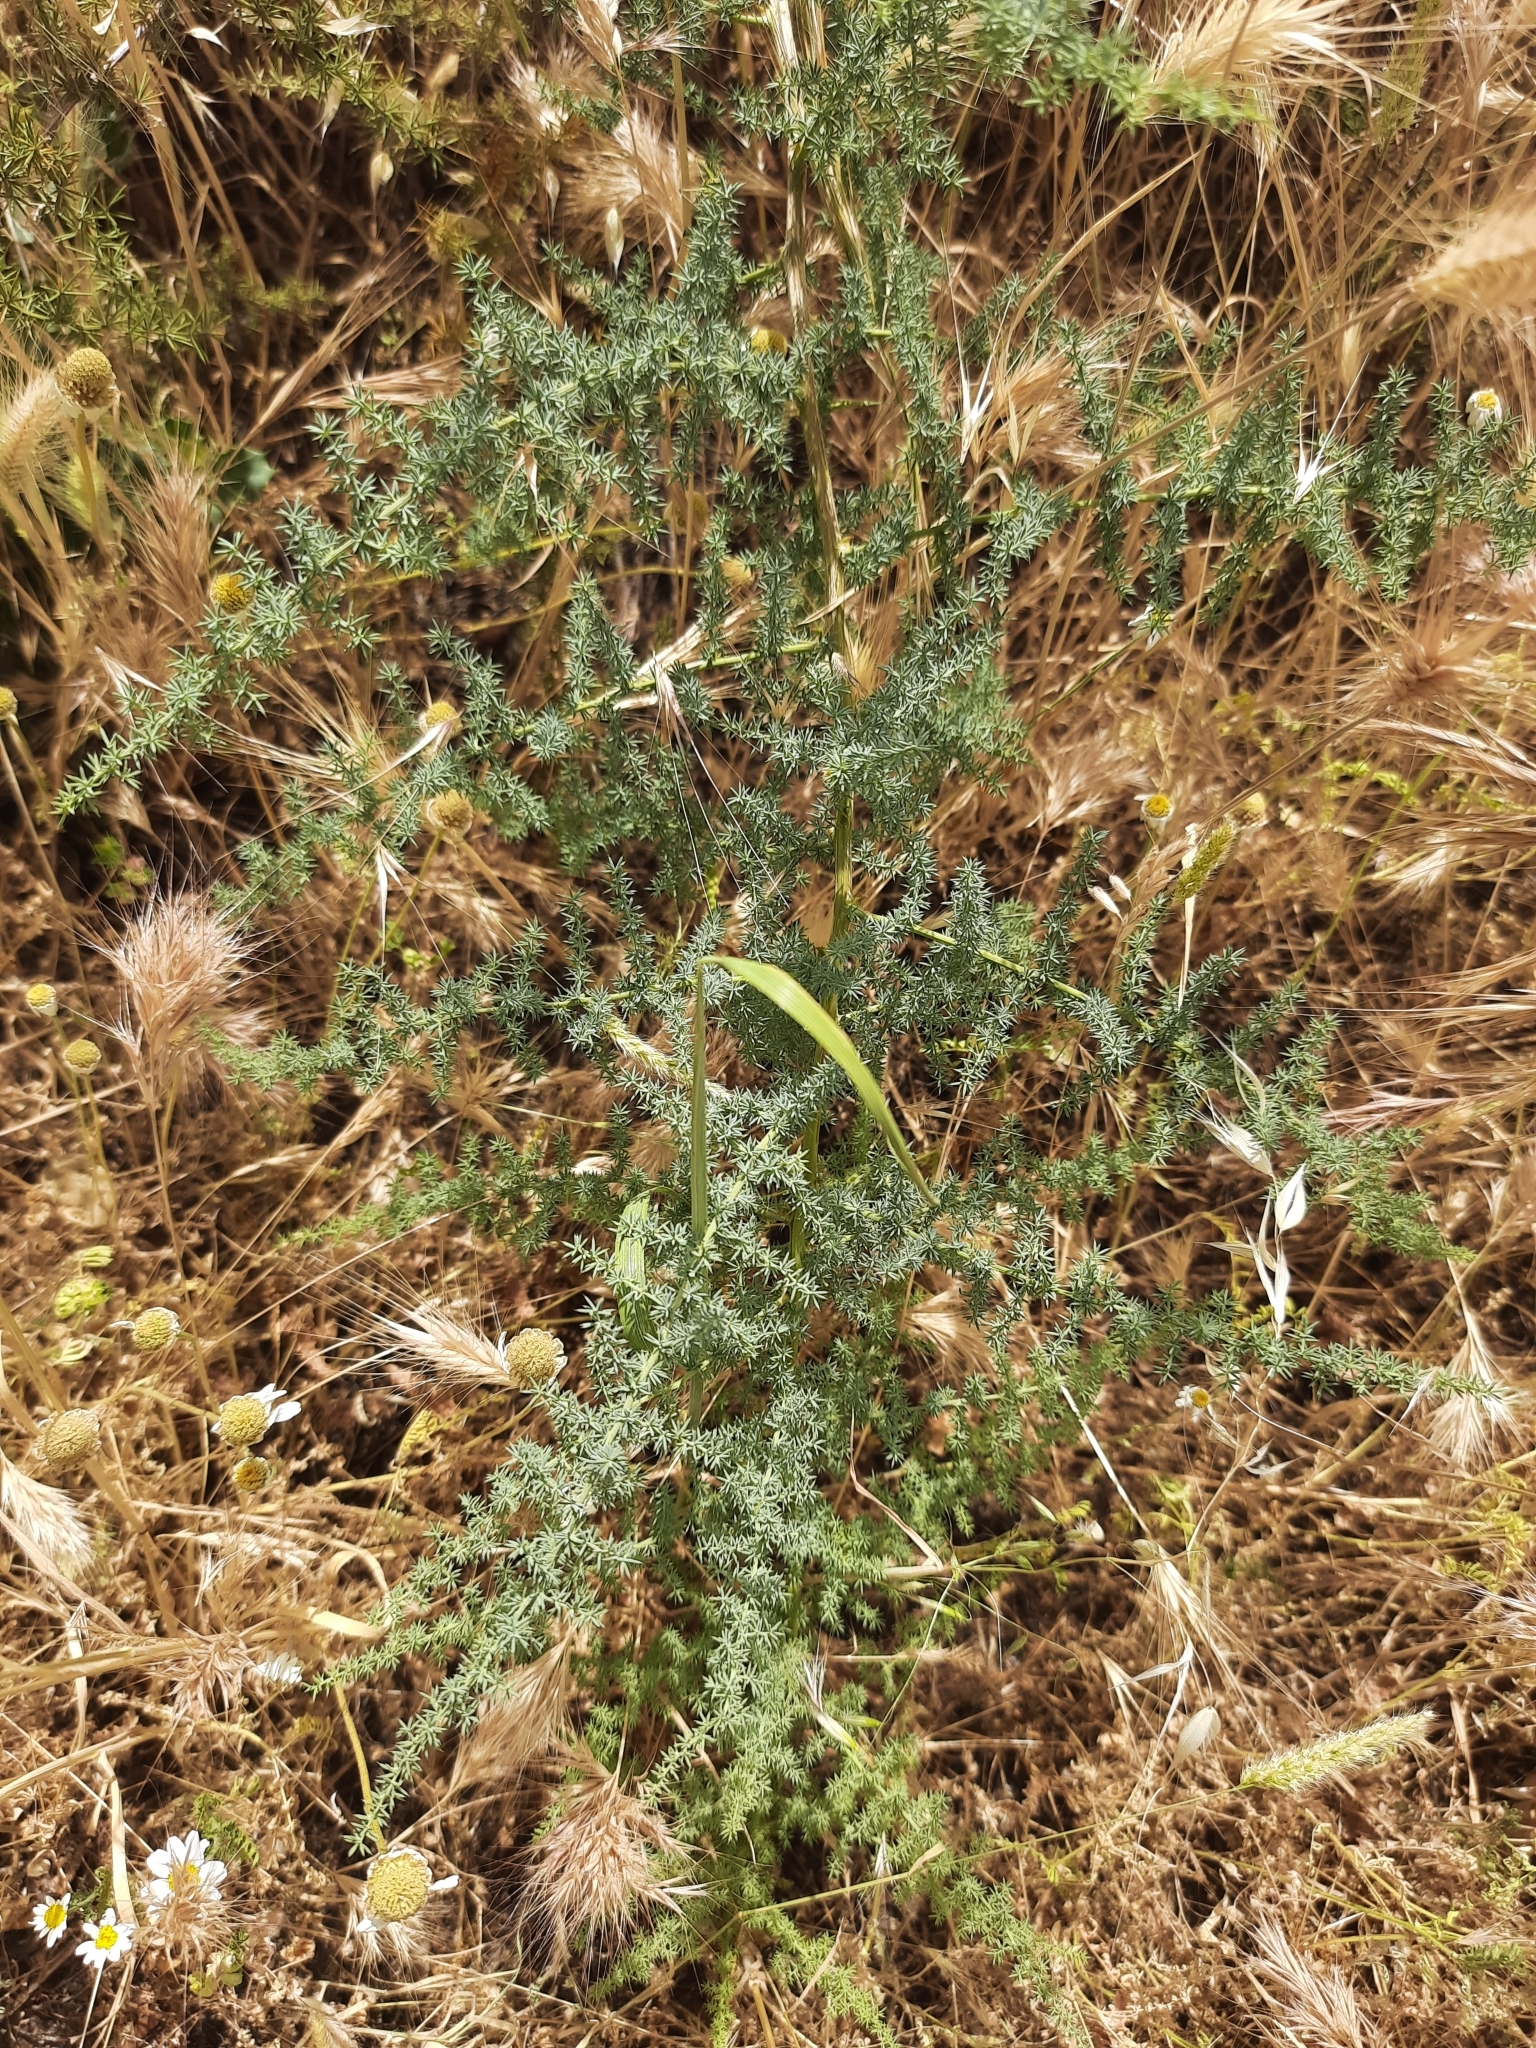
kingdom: Plantae
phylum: Tracheophyta
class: Liliopsida
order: Asparagales
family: Asparagaceae
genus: Asparagus
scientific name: Asparagus acutifolius
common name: Wild asparagus
